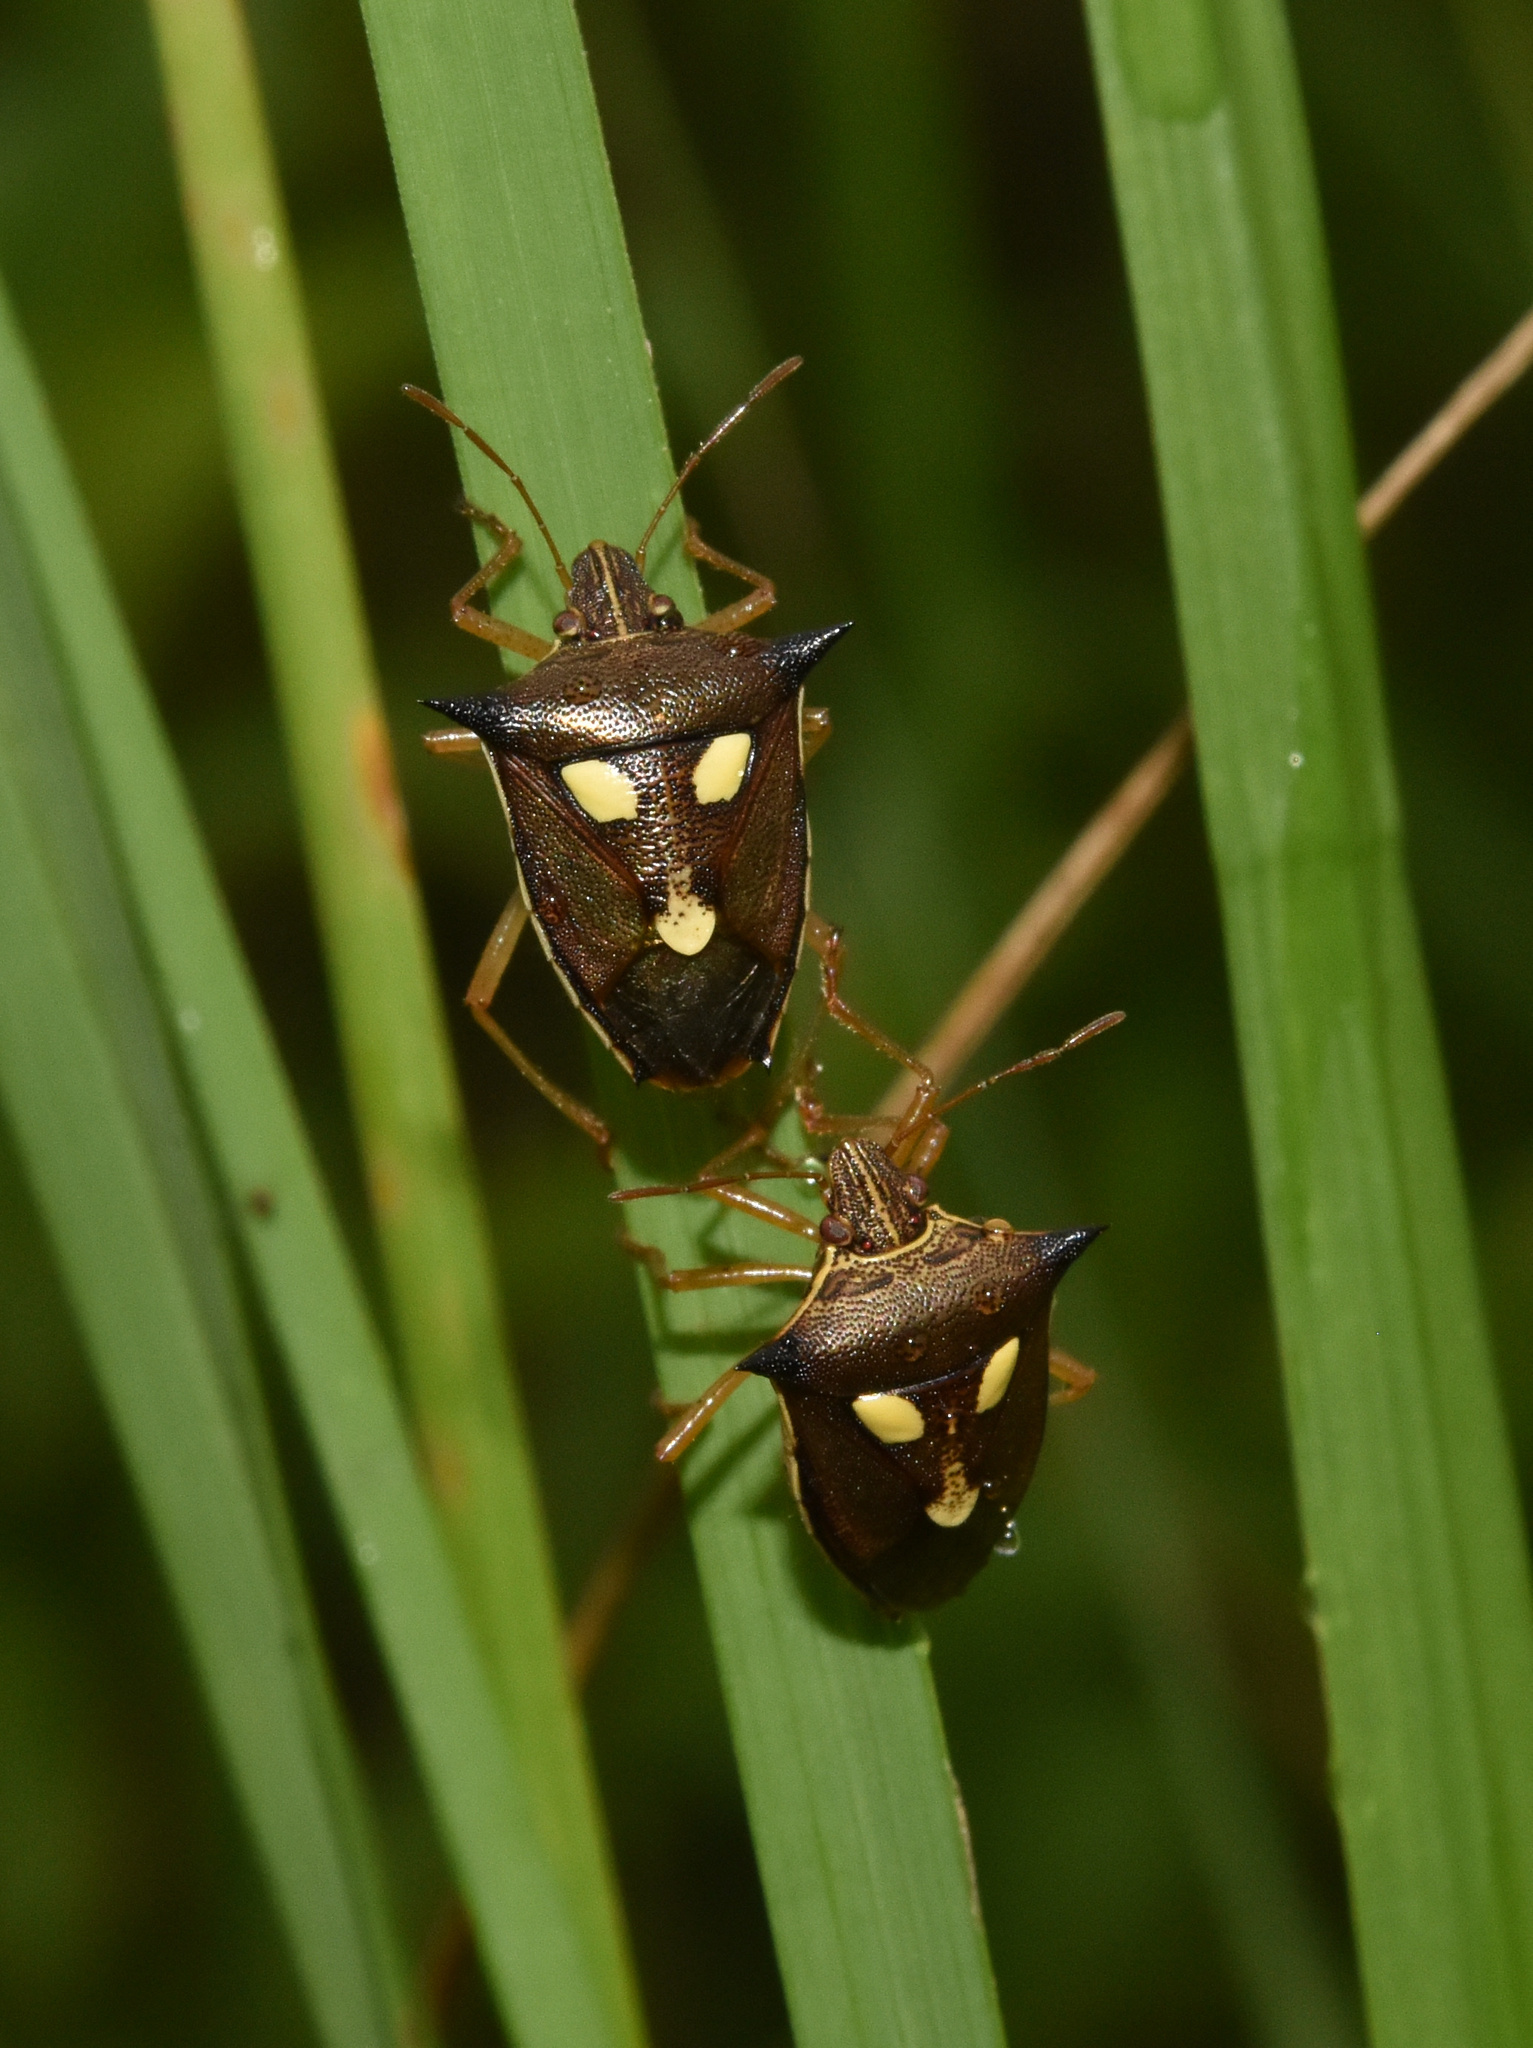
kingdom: Animalia
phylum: Arthropoda
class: Insecta
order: Hemiptera
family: Pentatomidae
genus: Aspavia
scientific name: Aspavia
